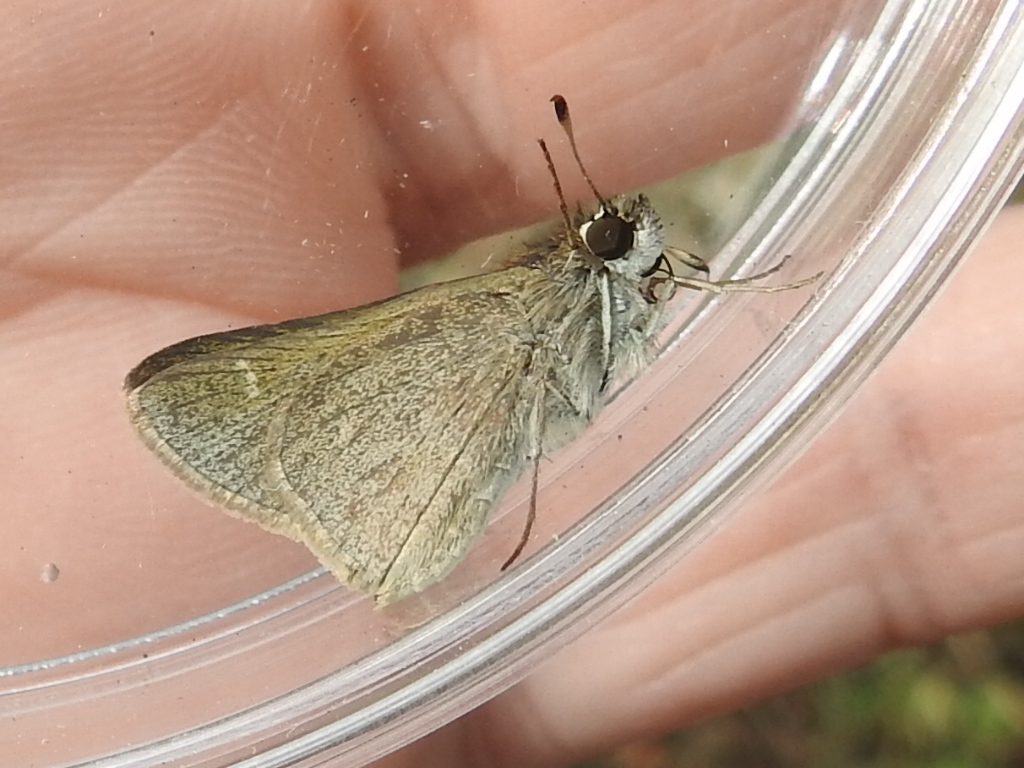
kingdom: Animalia
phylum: Arthropoda
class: Insecta
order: Lepidoptera
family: Hesperiidae
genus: Lerodea
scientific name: Lerodea eufala
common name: Eufala skipper
